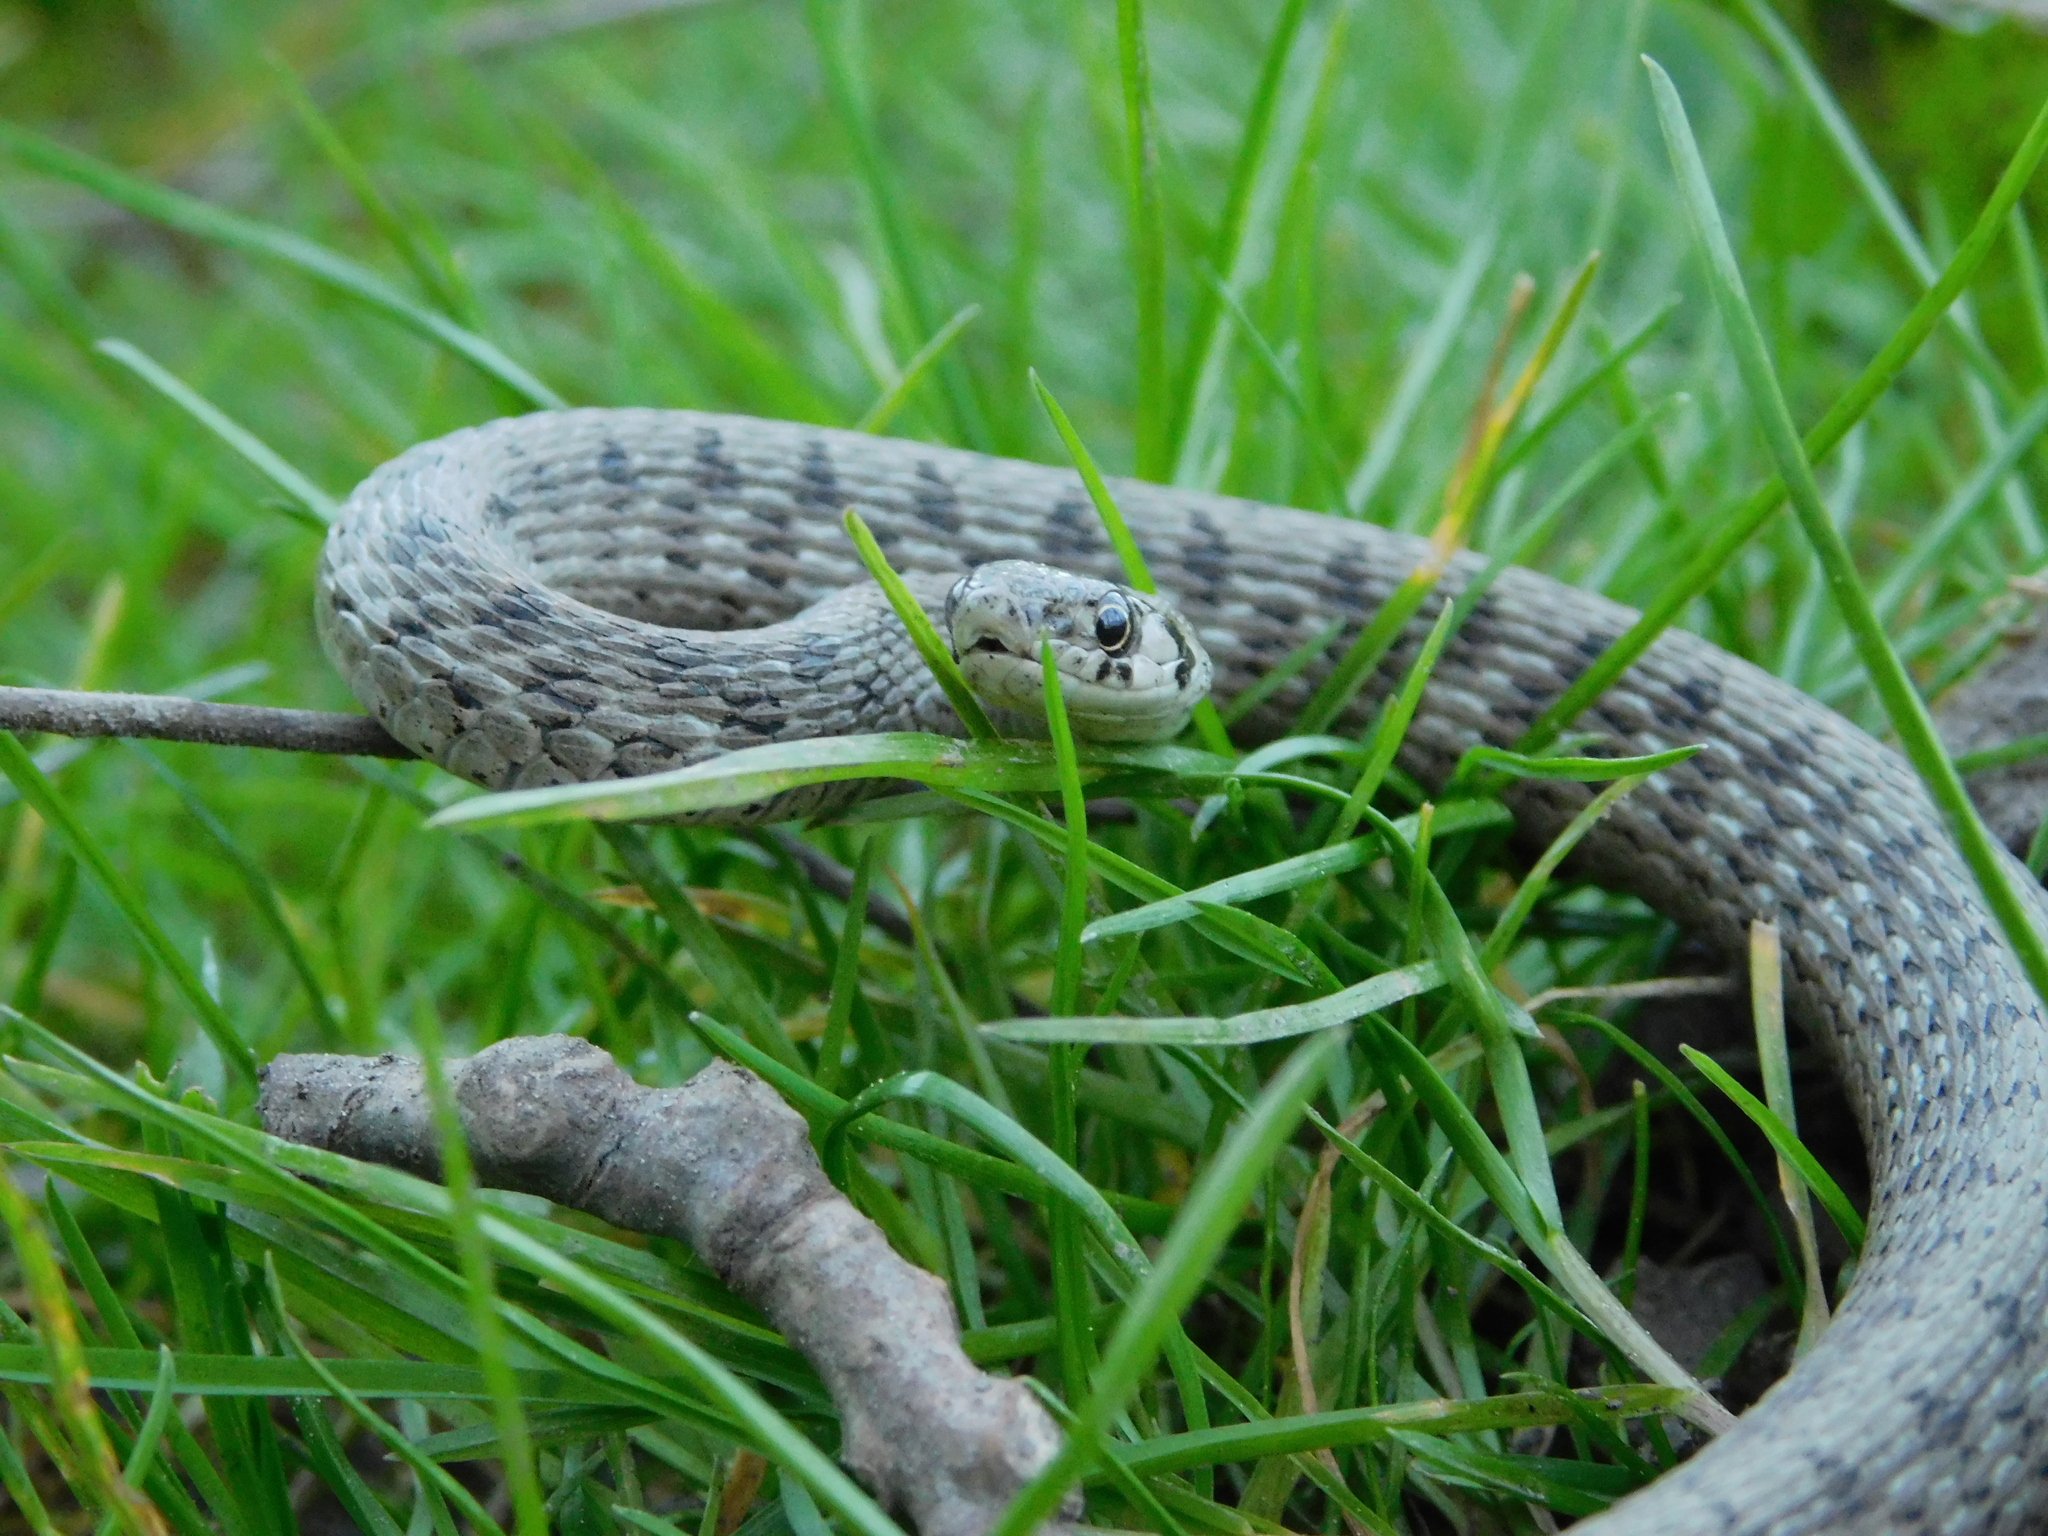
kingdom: Animalia
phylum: Chordata
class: Squamata
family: Colubridae
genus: Storeria
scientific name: Storeria dekayi
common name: (dekay’s) brown snake
